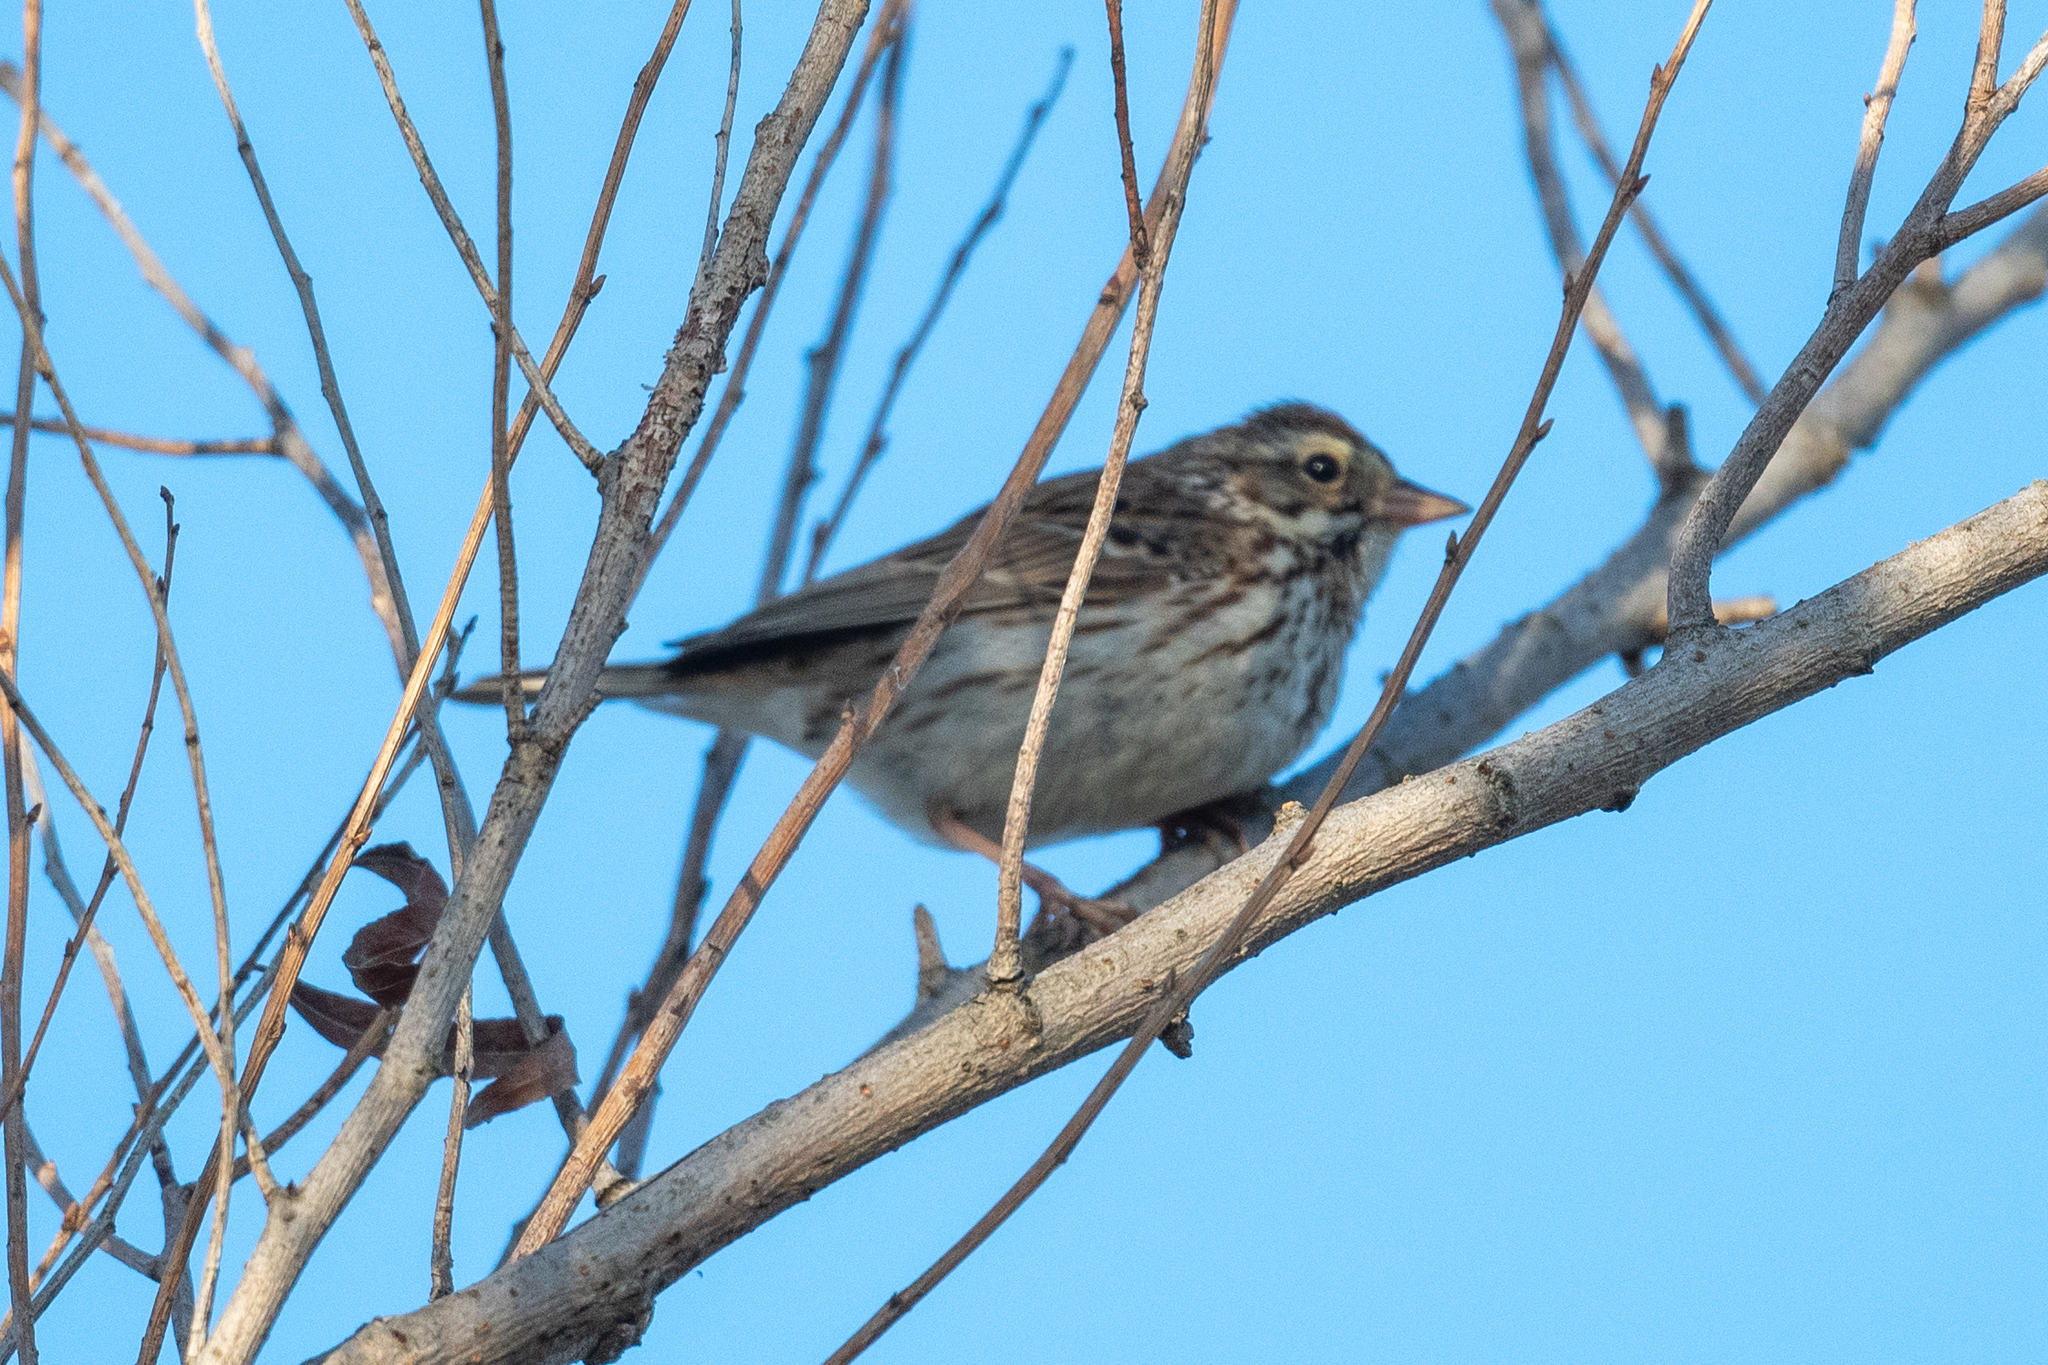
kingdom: Animalia
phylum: Chordata
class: Aves
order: Passeriformes
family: Passerellidae
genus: Passerculus
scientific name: Passerculus sandwichensis
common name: Savannah sparrow
